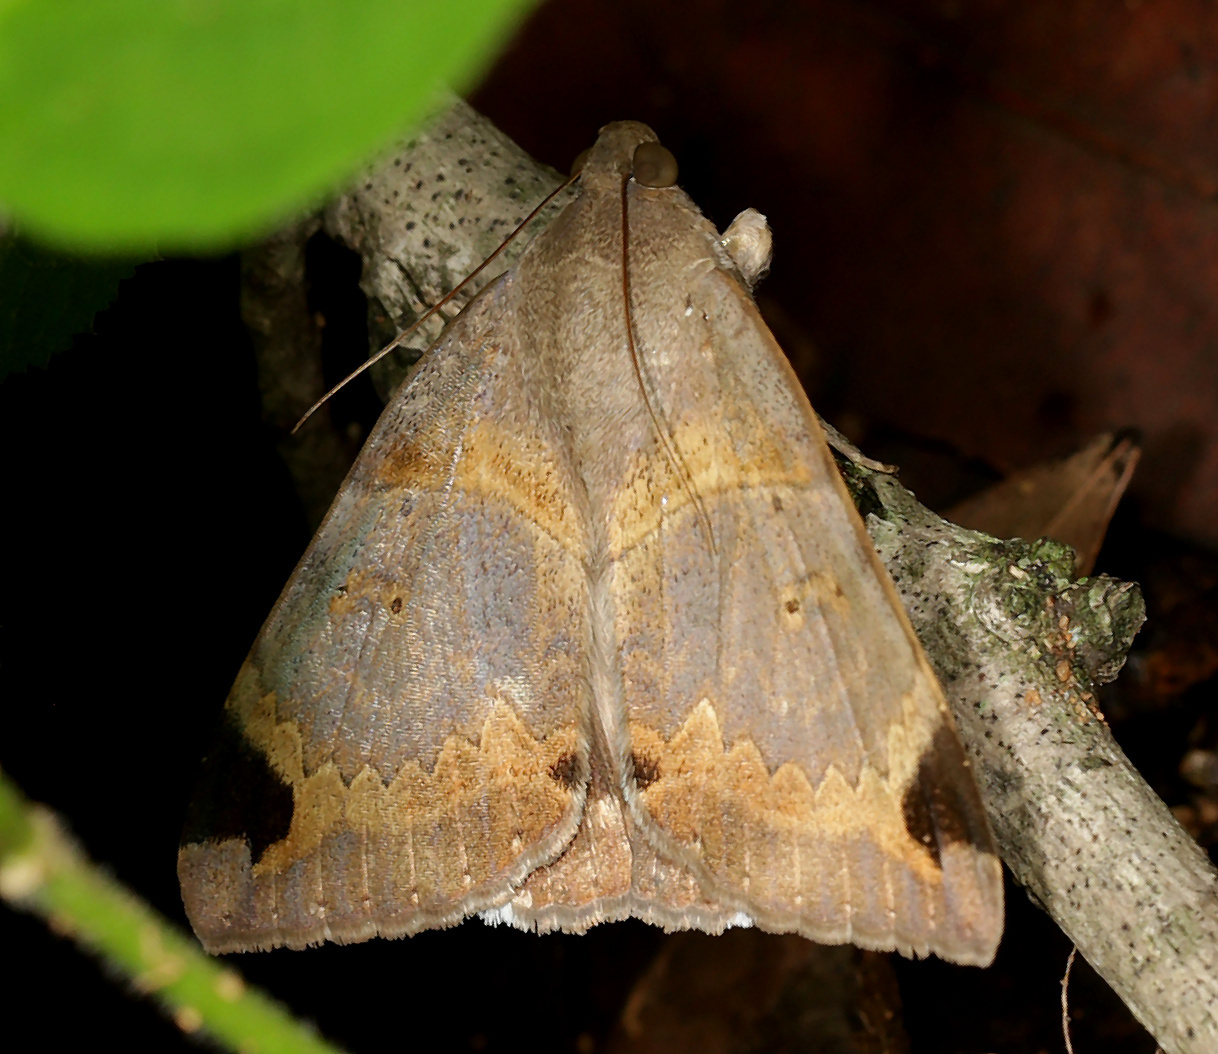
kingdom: Animalia
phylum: Arthropoda
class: Insecta
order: Lepidoptera
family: Erebidae
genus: Achaea
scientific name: Achaea lienardi
